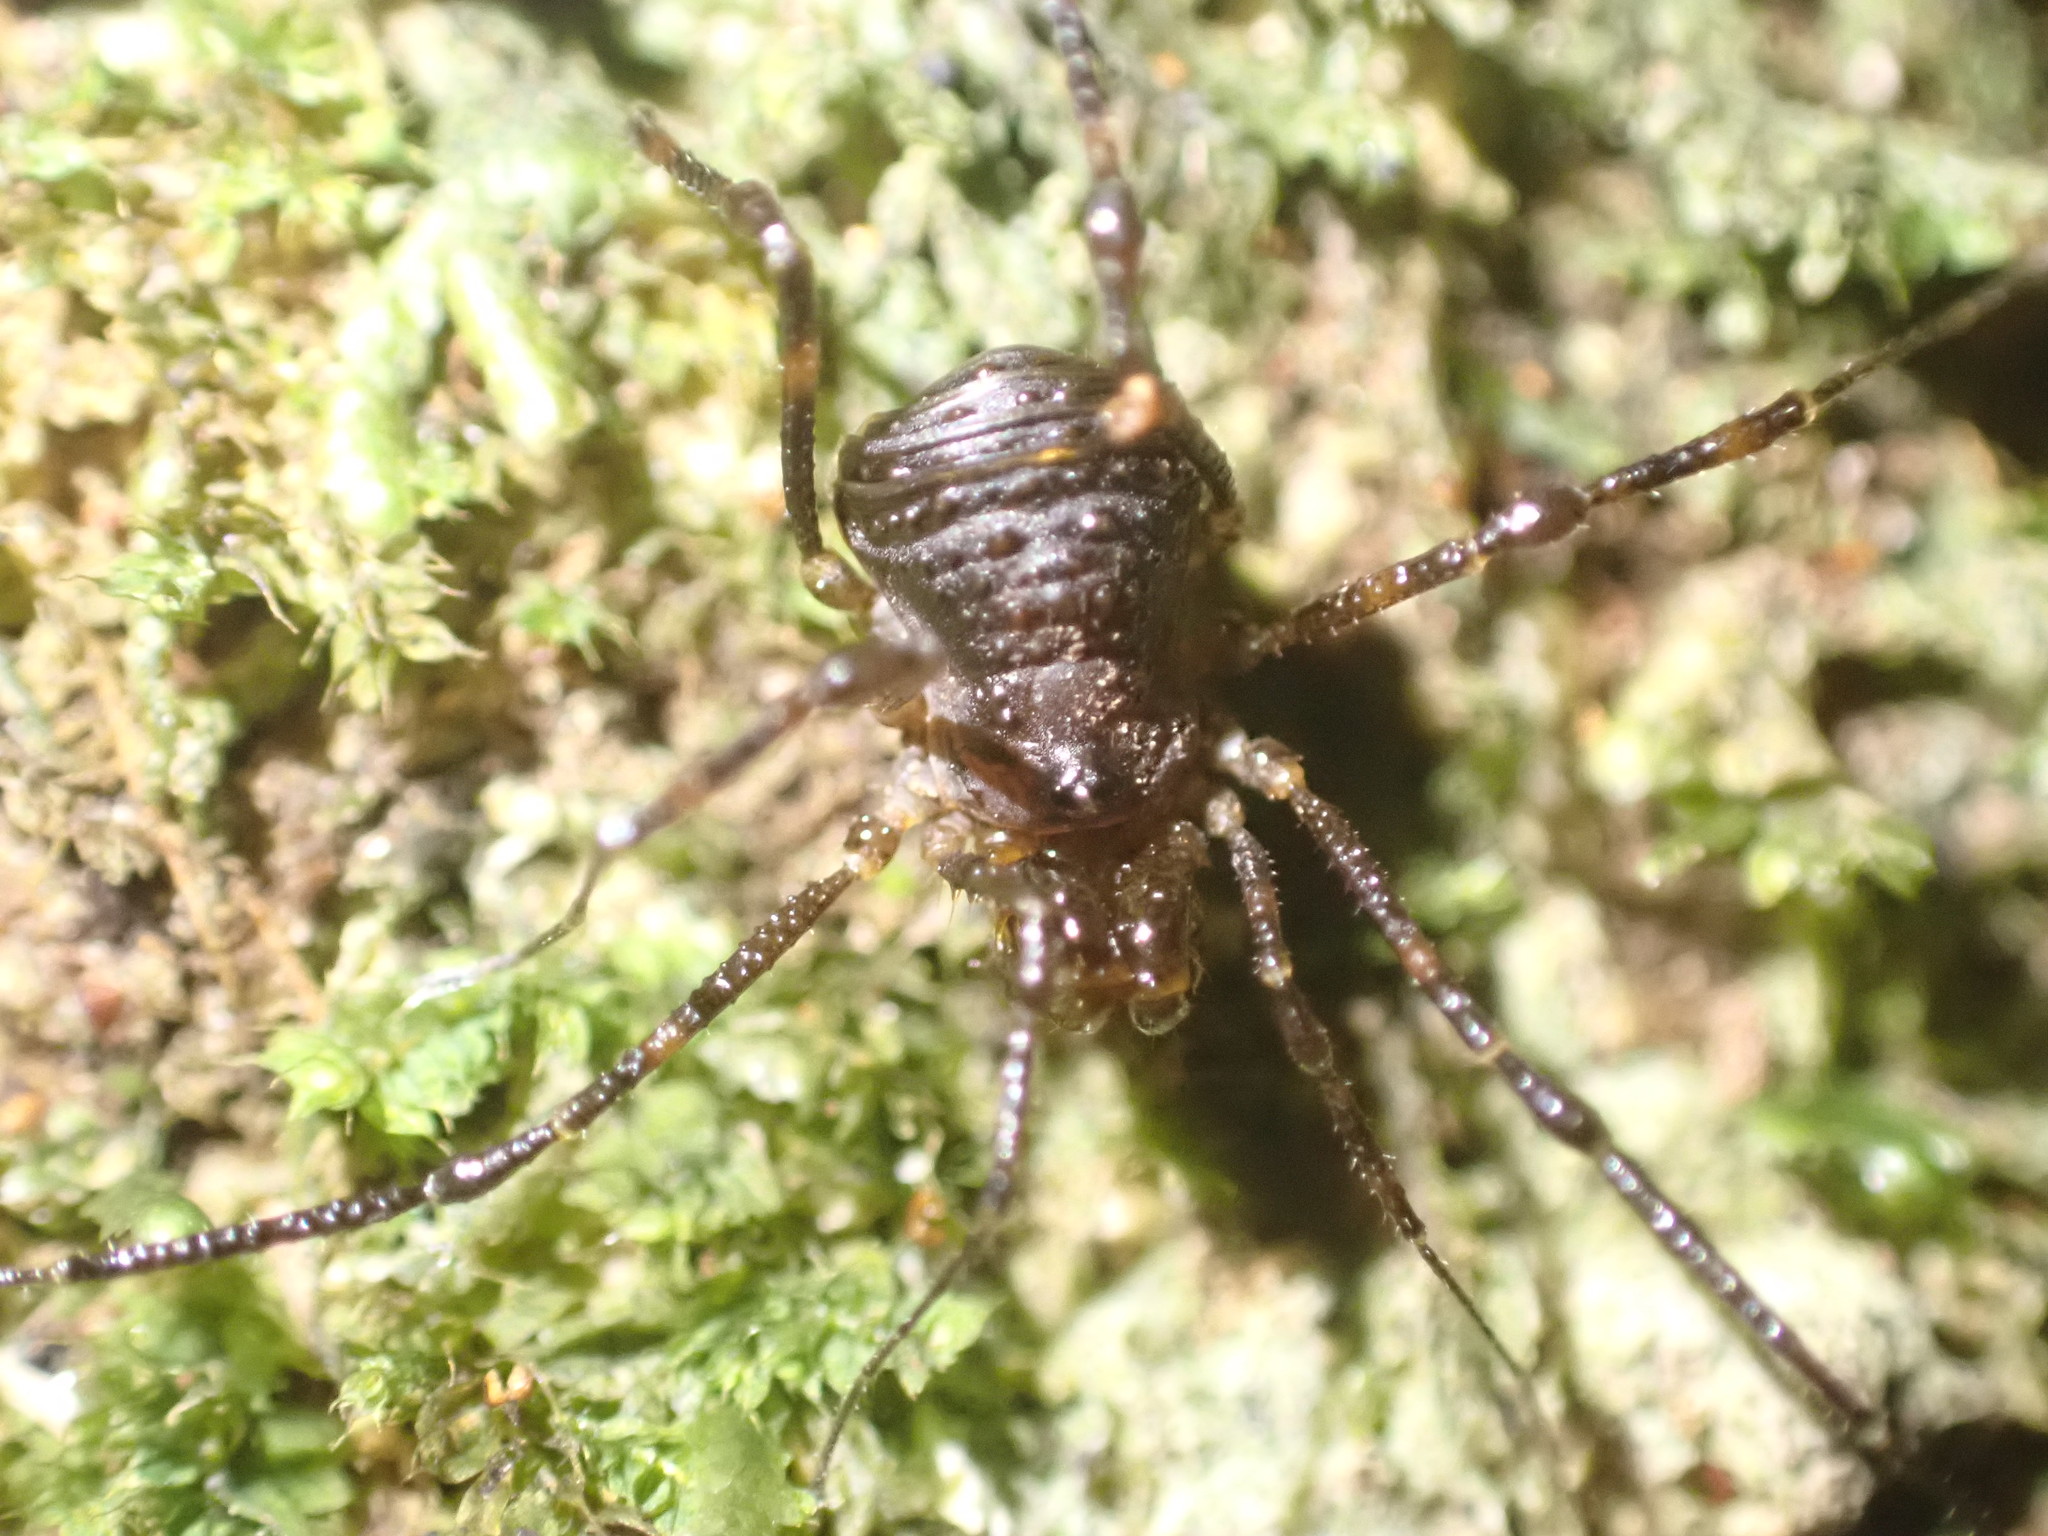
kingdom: Animalia
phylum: Arthropoda
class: Arachnida
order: Opiliones
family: Triaenonychidae
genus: Hendea
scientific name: Hendea myersi
